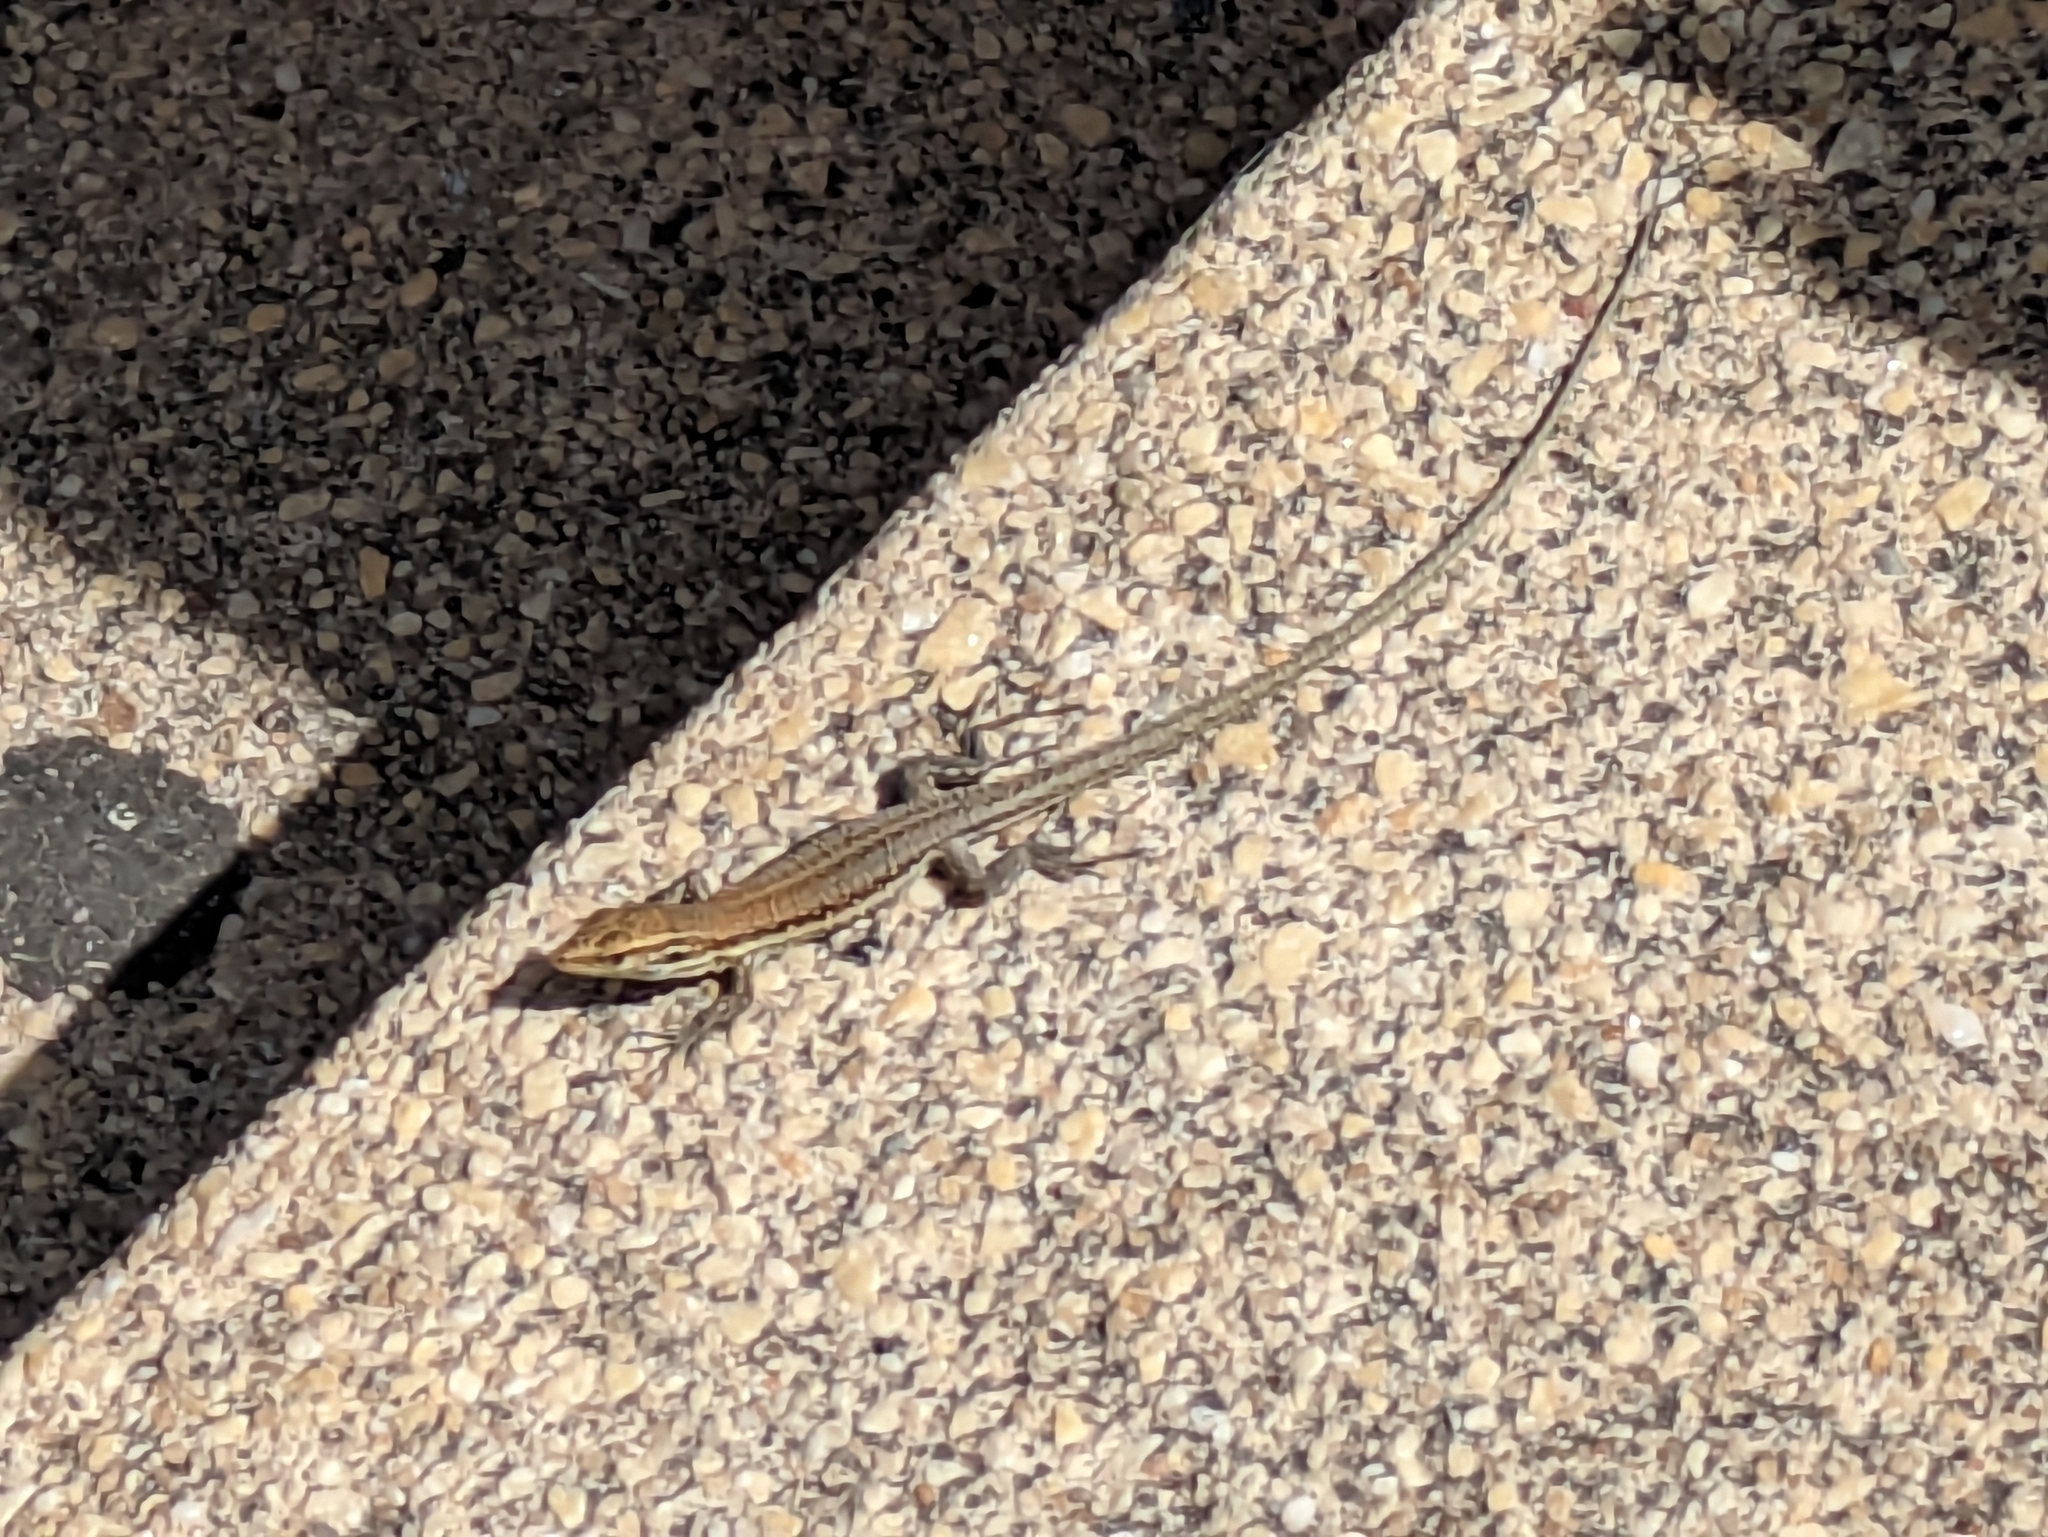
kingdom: Animalia
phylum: Chordata
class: Squamata
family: Lacertidae
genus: Gallotia
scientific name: Gallotia galloti
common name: Gallot's lizard
